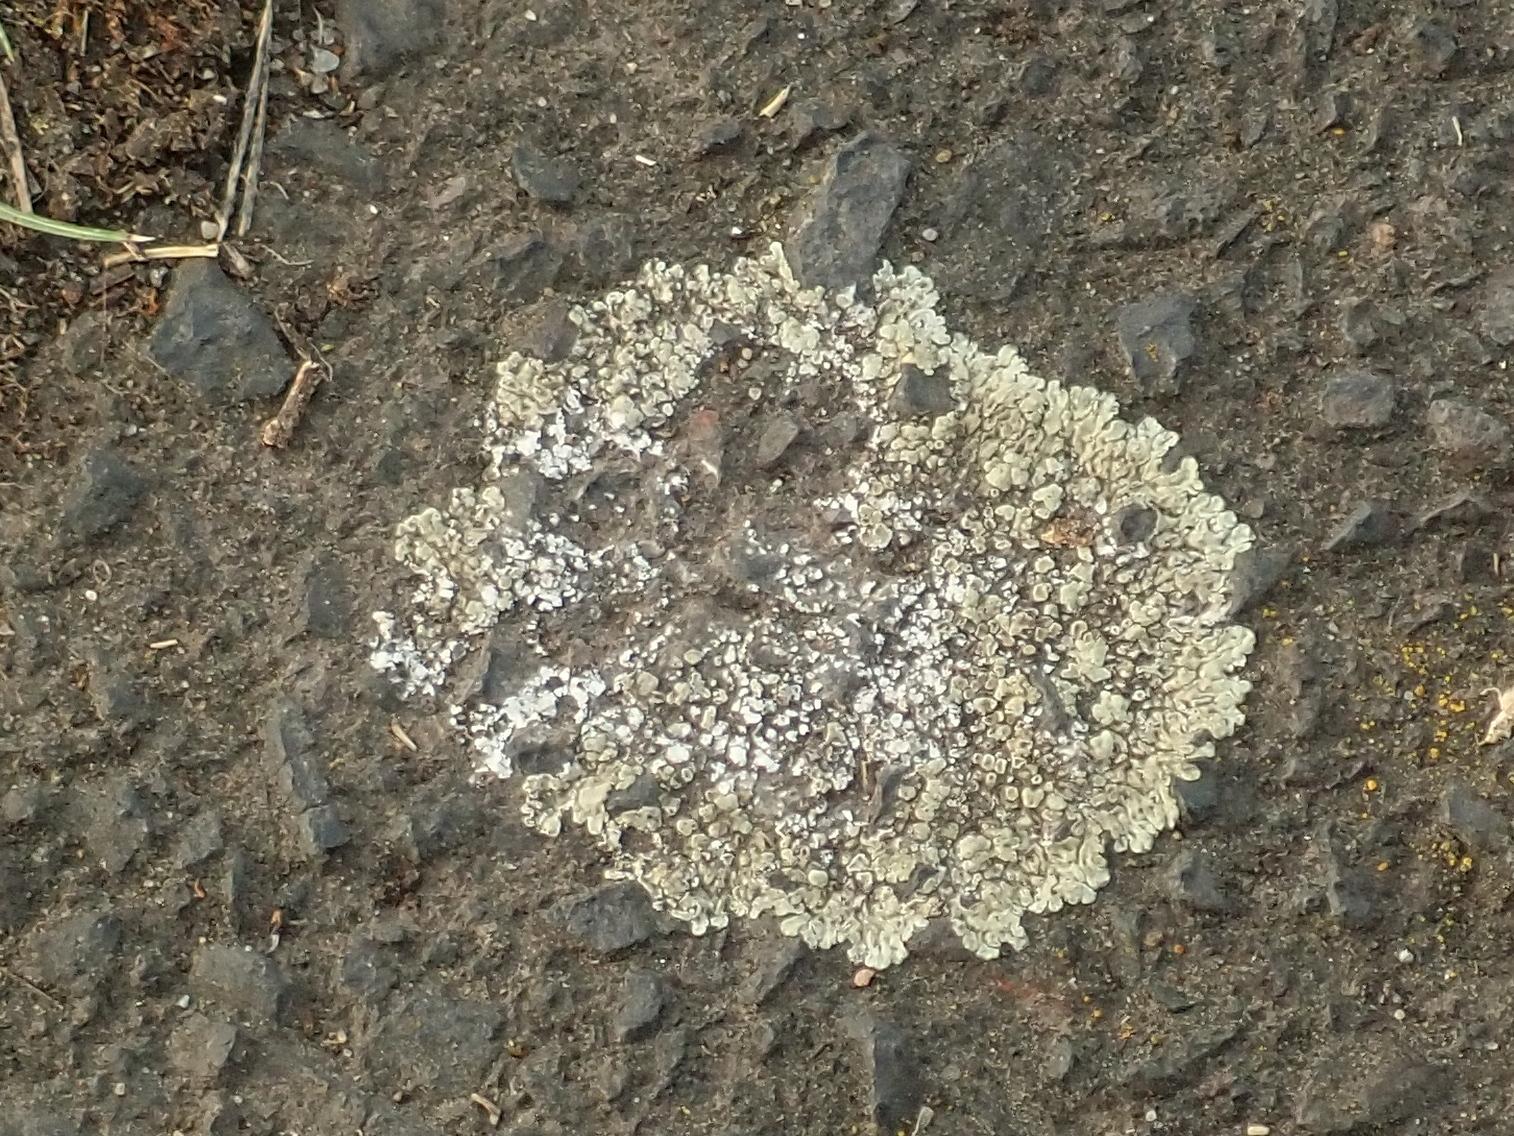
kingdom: Fungi
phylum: Ascomycota
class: Lecanoromycetes
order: Lecanorales
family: Lecanoraceae
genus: Protoparmeliopsis
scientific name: Protoparmeliopsis muralis
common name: Stonewall rim lichen
